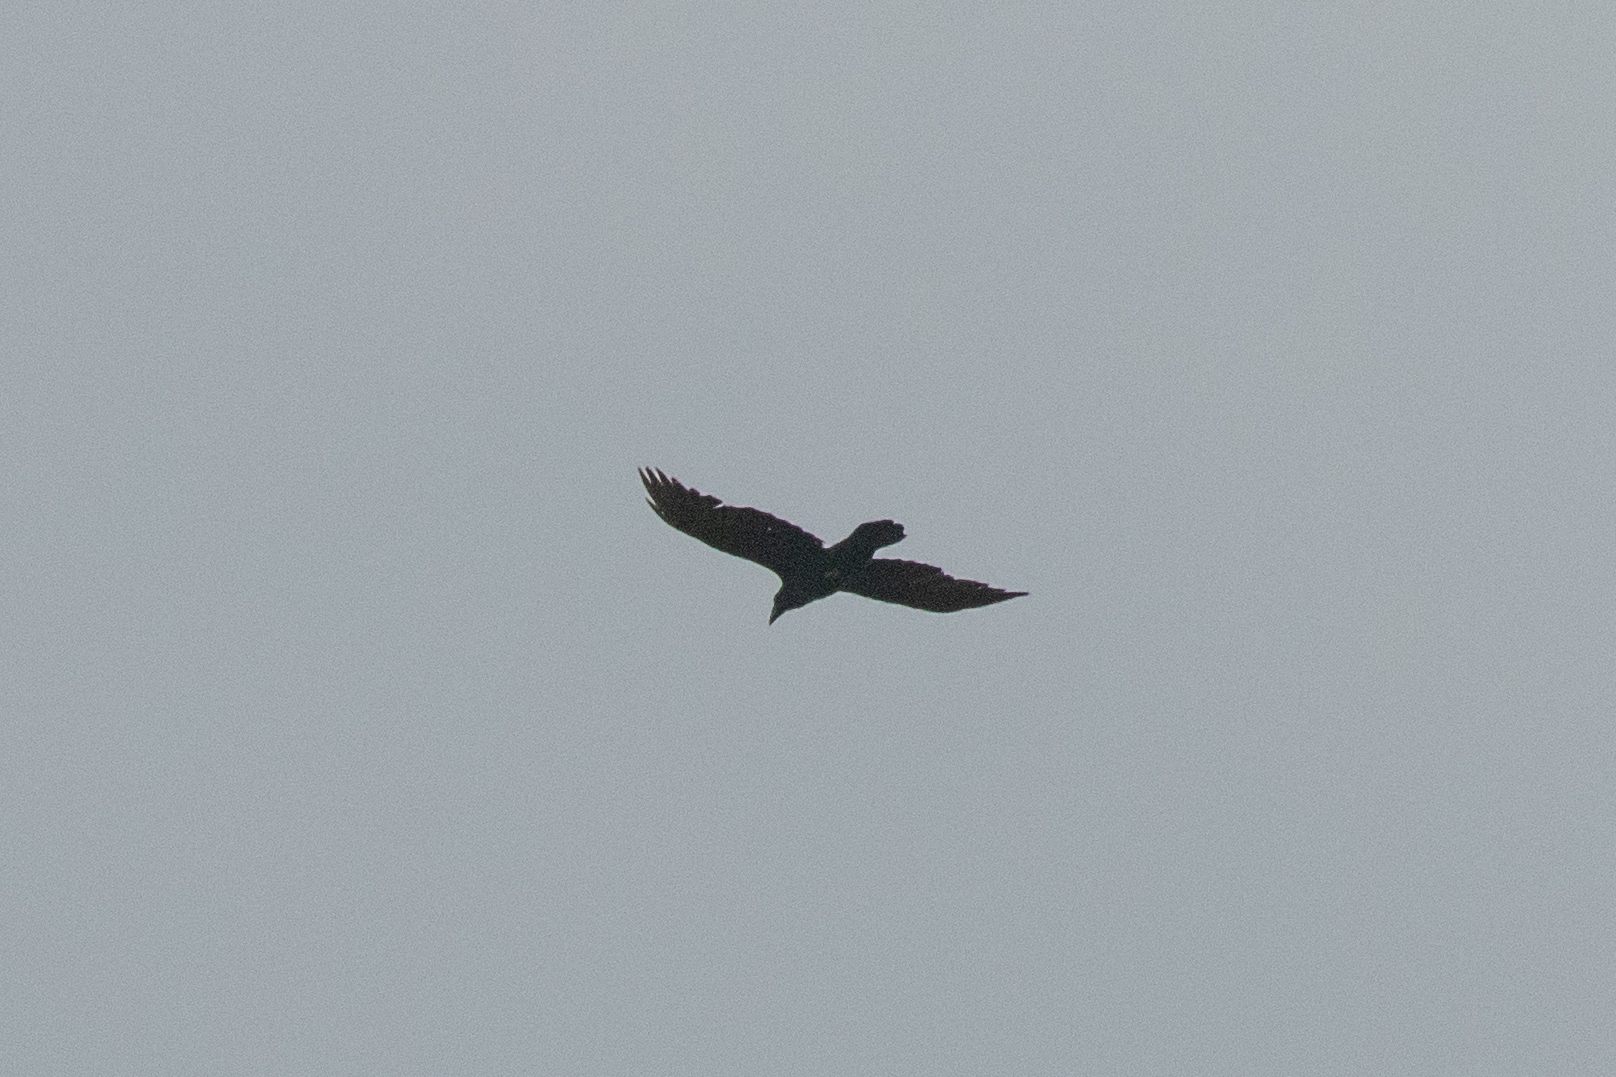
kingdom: Animalia
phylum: Chordata
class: Aves
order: Passeriformes
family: Corvidae
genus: Corvus
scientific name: Corvus corax
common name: Common raven
